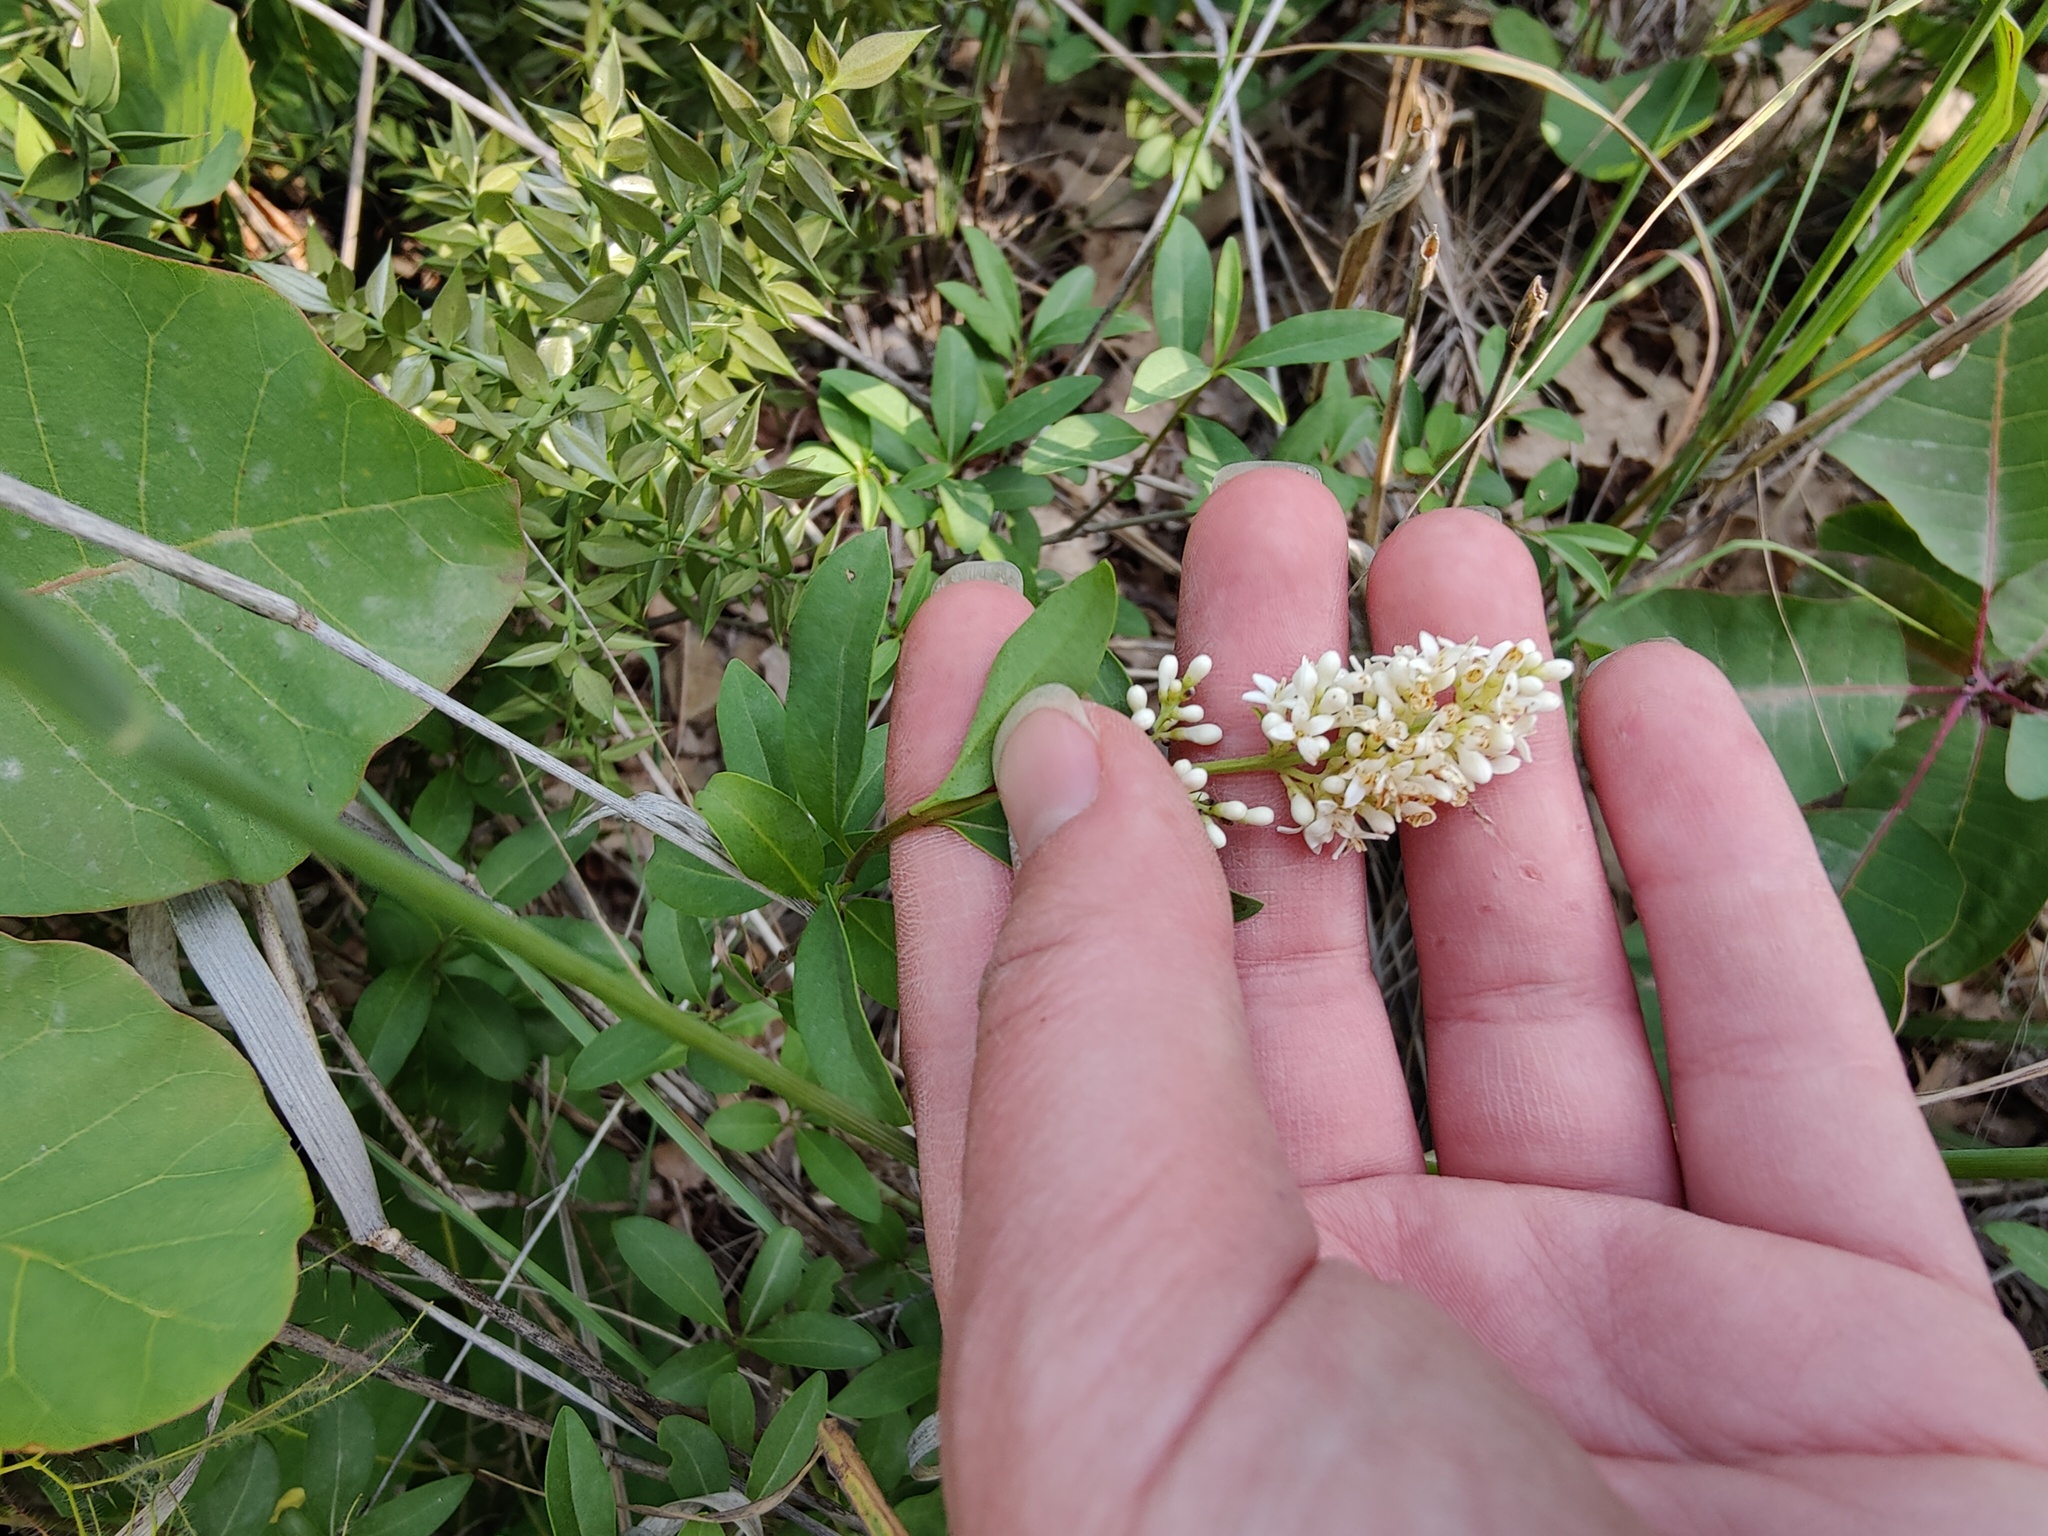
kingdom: Plantae
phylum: Tracheophyta
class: Magnoliopsida
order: Lamiales
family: Oleaceae
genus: Ligustrum
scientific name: Ligustrum vulgare
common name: Wild privet
